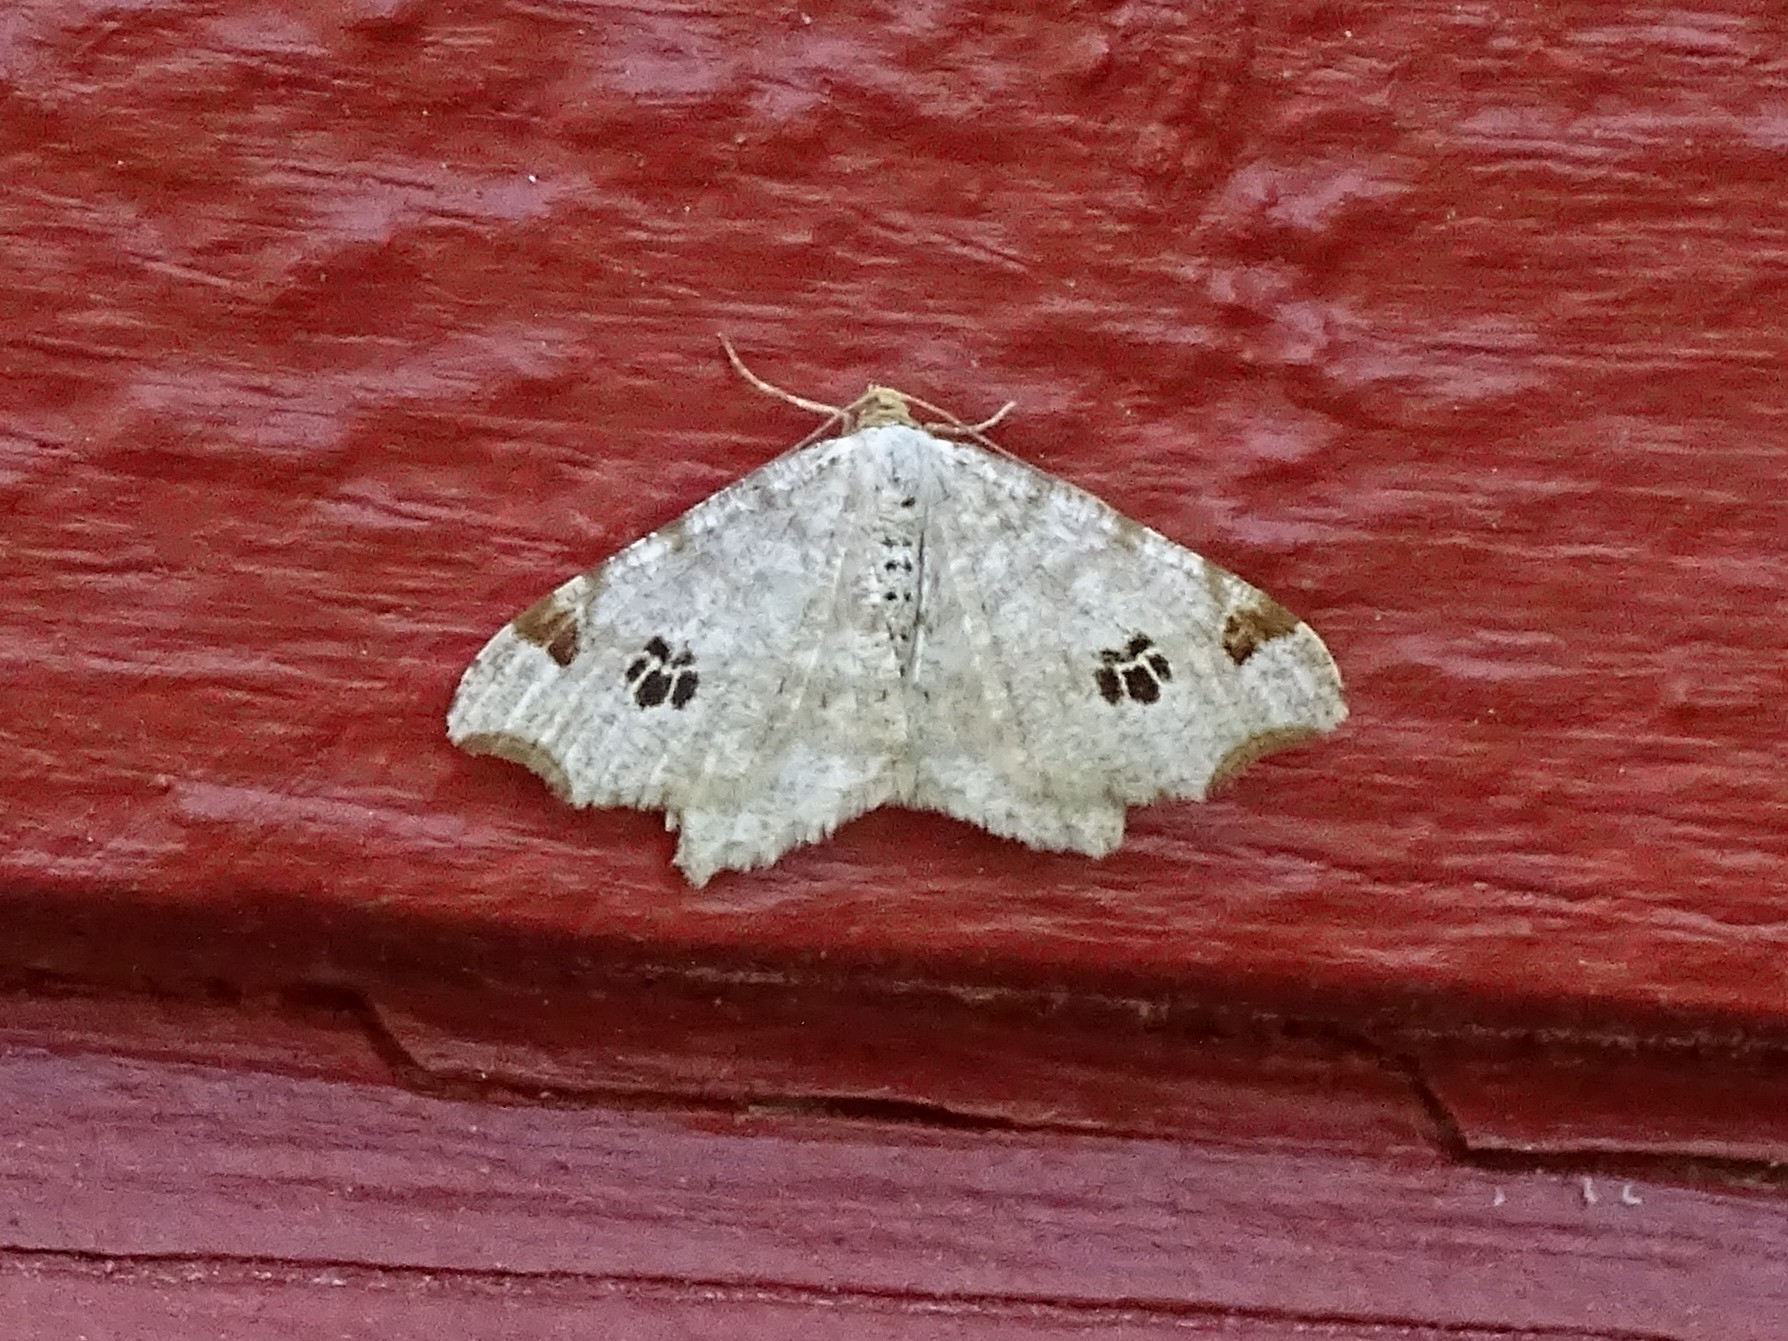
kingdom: Animalia
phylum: Arthropoda
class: Insecta
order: Lepidoptera
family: Geometridae
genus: Macaria
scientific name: Macaria notata
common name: Peacock moth
